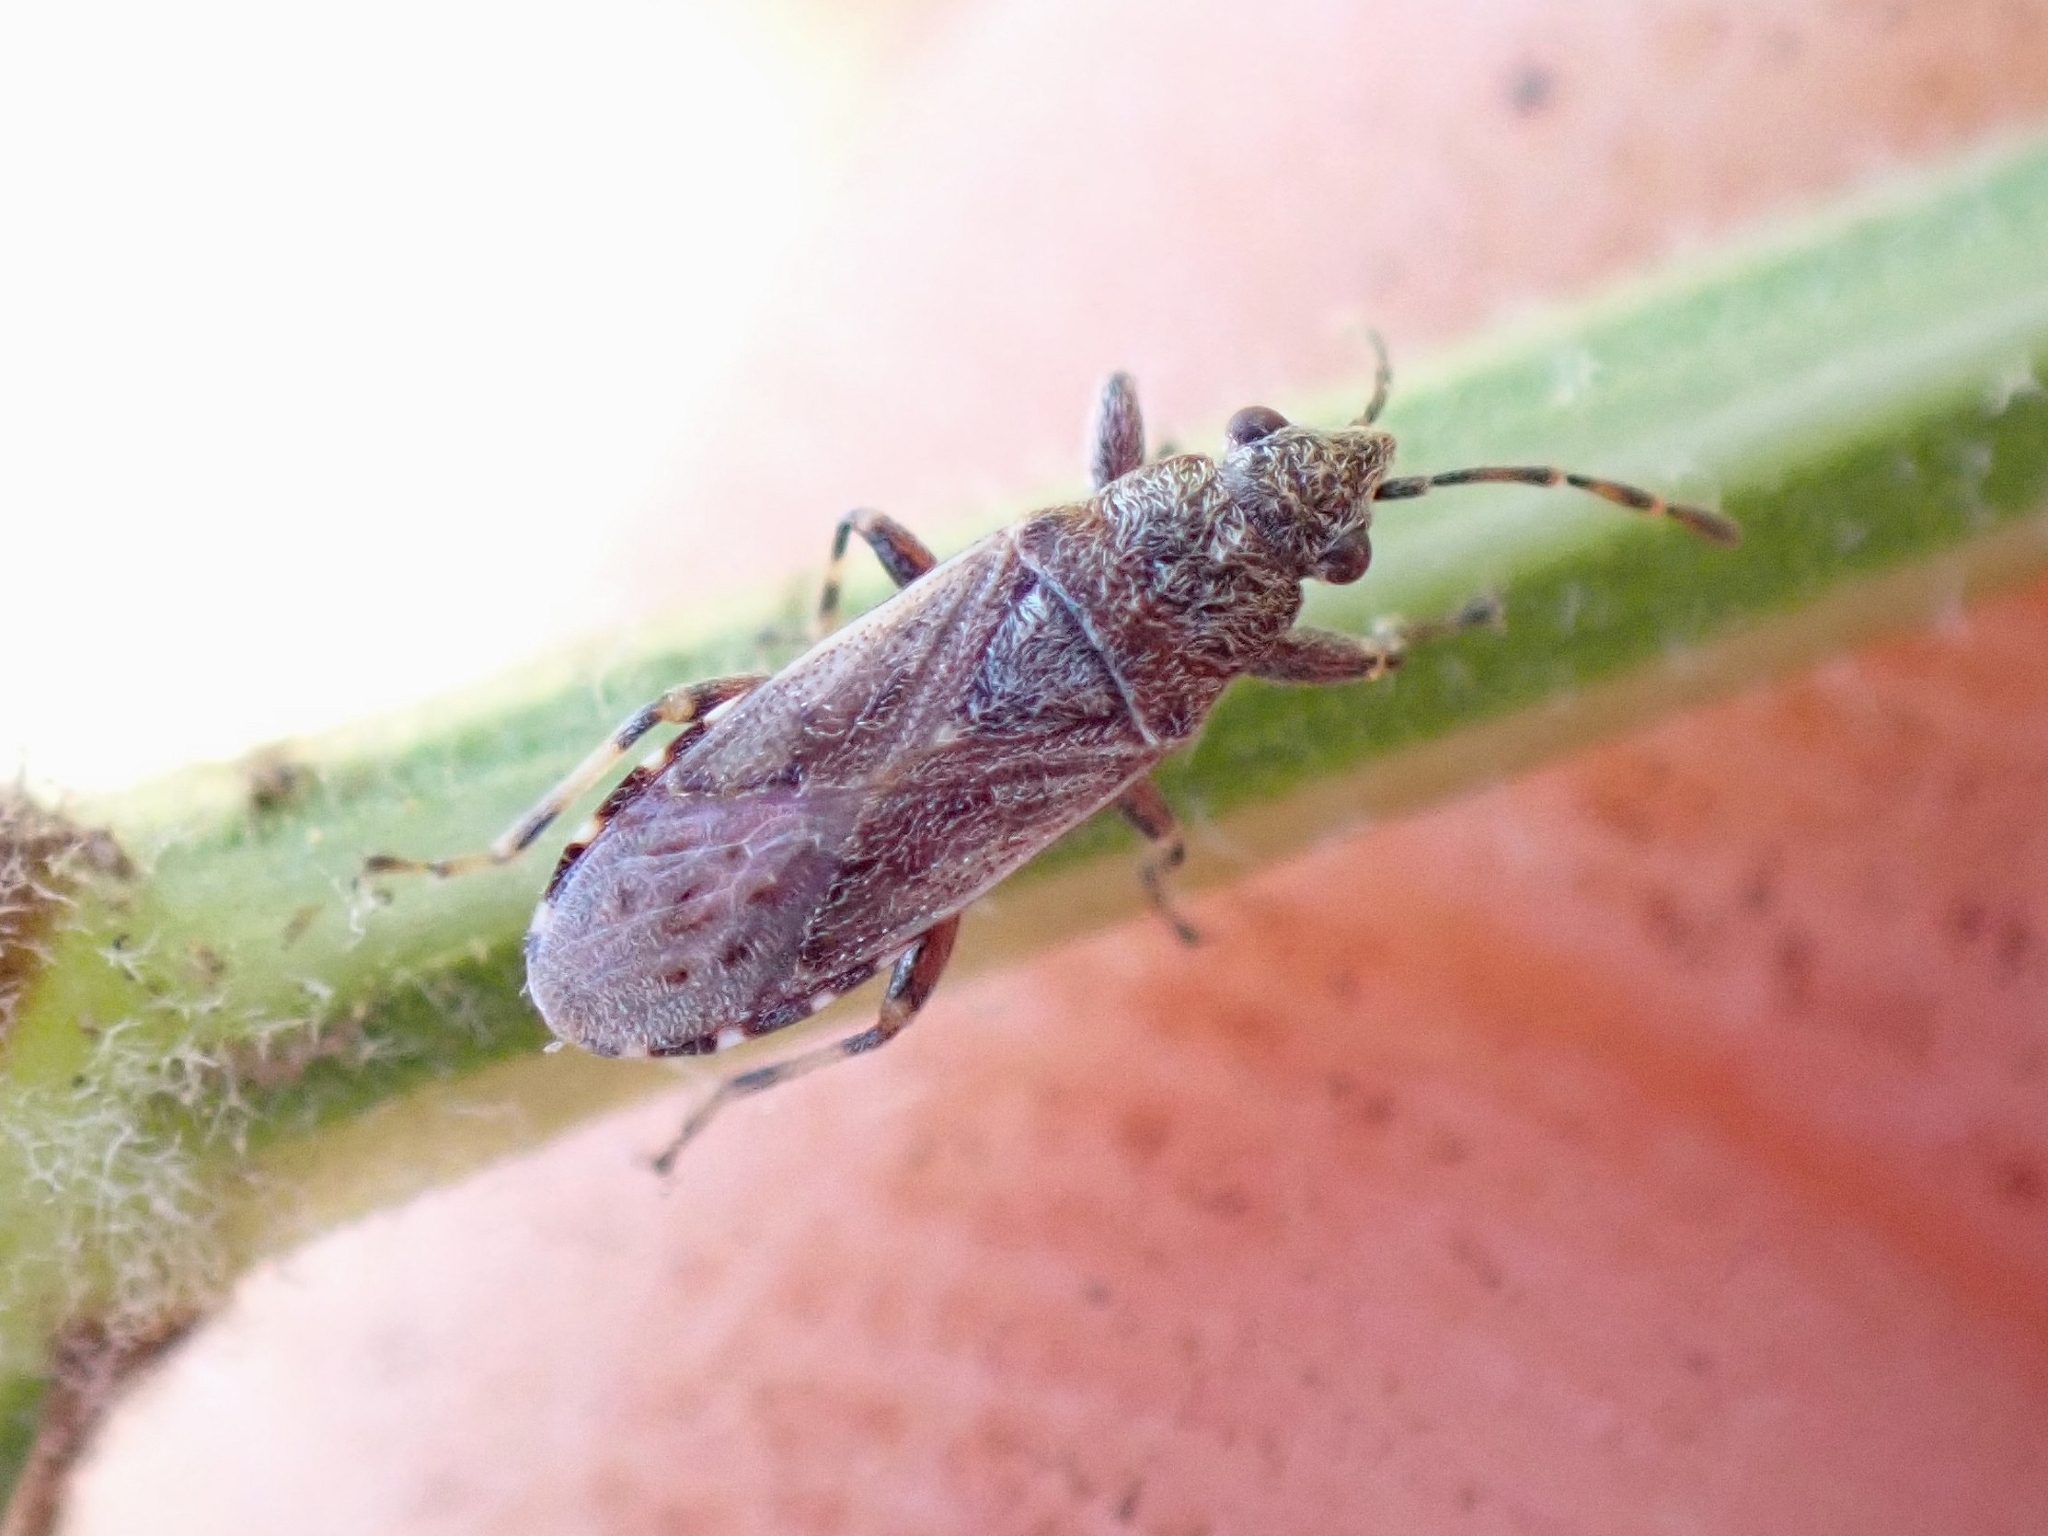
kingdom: Animalia
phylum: Arthropoda
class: Insecta
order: Hemiptera
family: Heterogastridae
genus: Heterogaster
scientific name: Heterogaster canariensis
